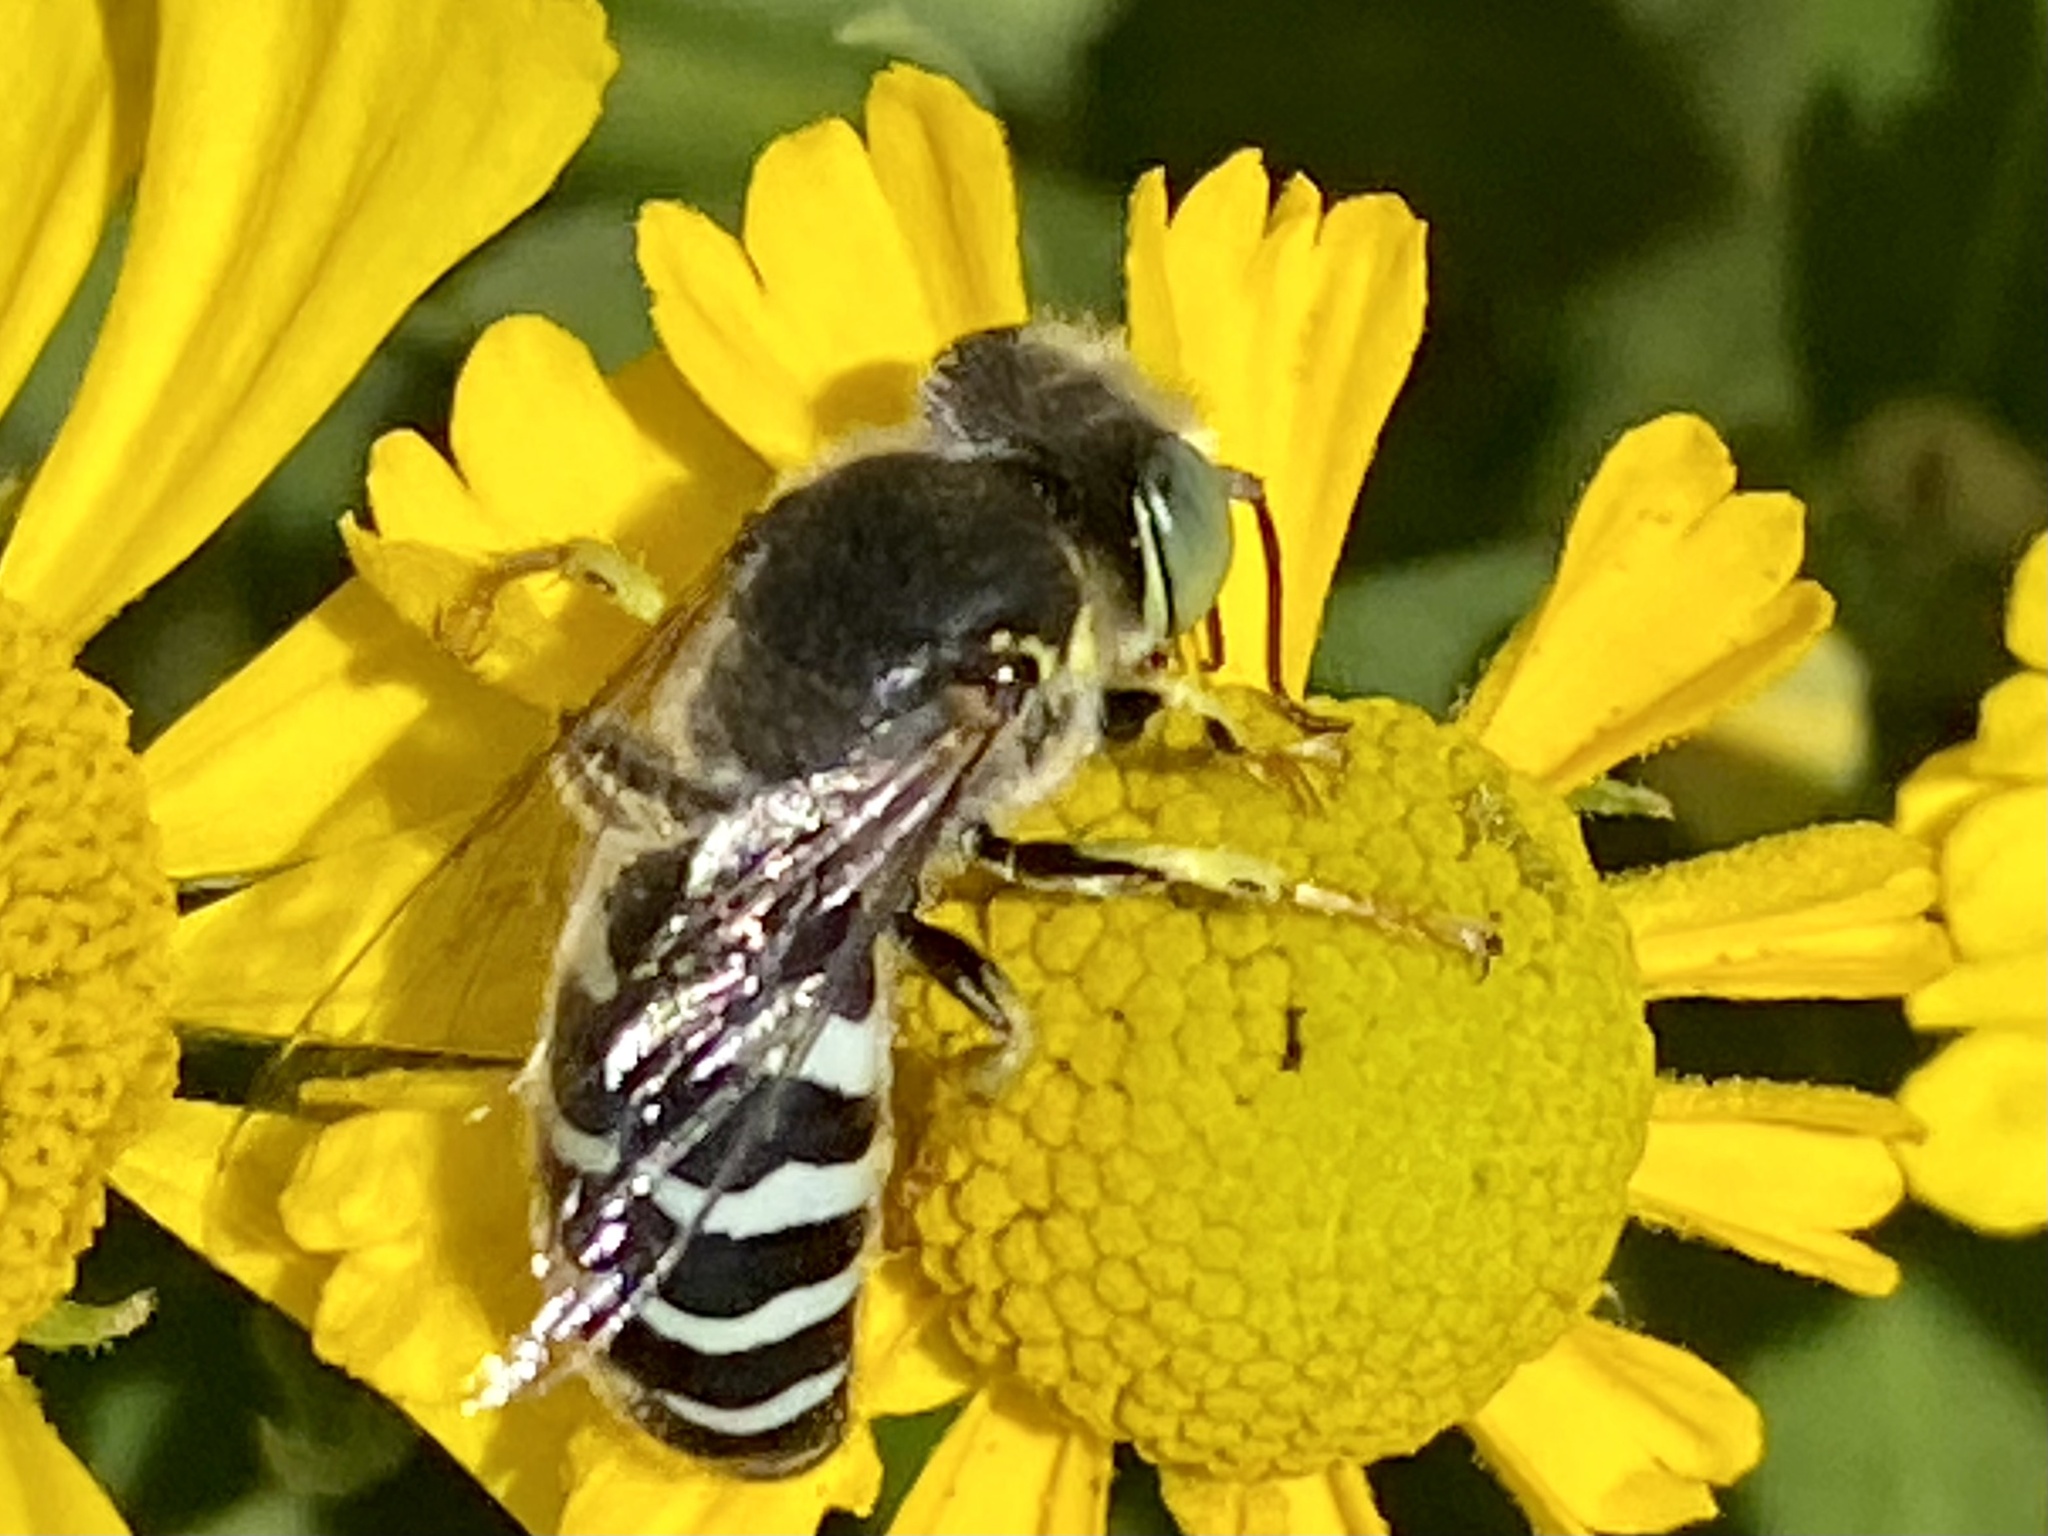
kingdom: Animalia
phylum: Arthropoda
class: Insecta
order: Hymenoptera
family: Crabronidae
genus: Bembix
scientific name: Bembix americana
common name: American sand wasp
